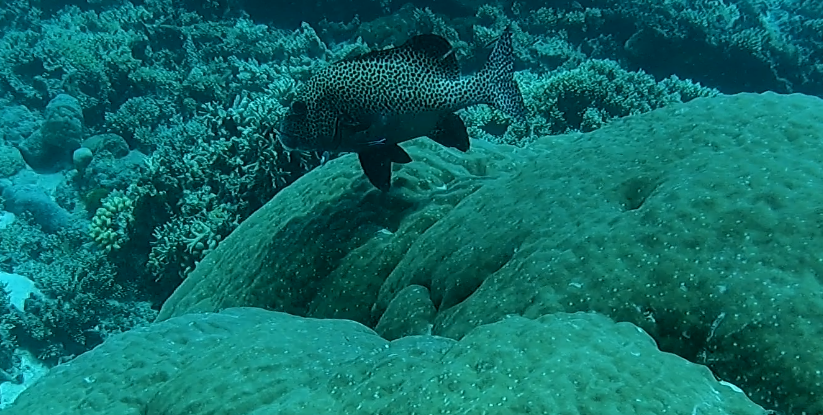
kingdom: Animalia
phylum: Chordata
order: Perciformes
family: Haemulidae
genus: Plectorhinchus
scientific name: Plectorhinchus chaetodonoides
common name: Harlequin sweetlips
